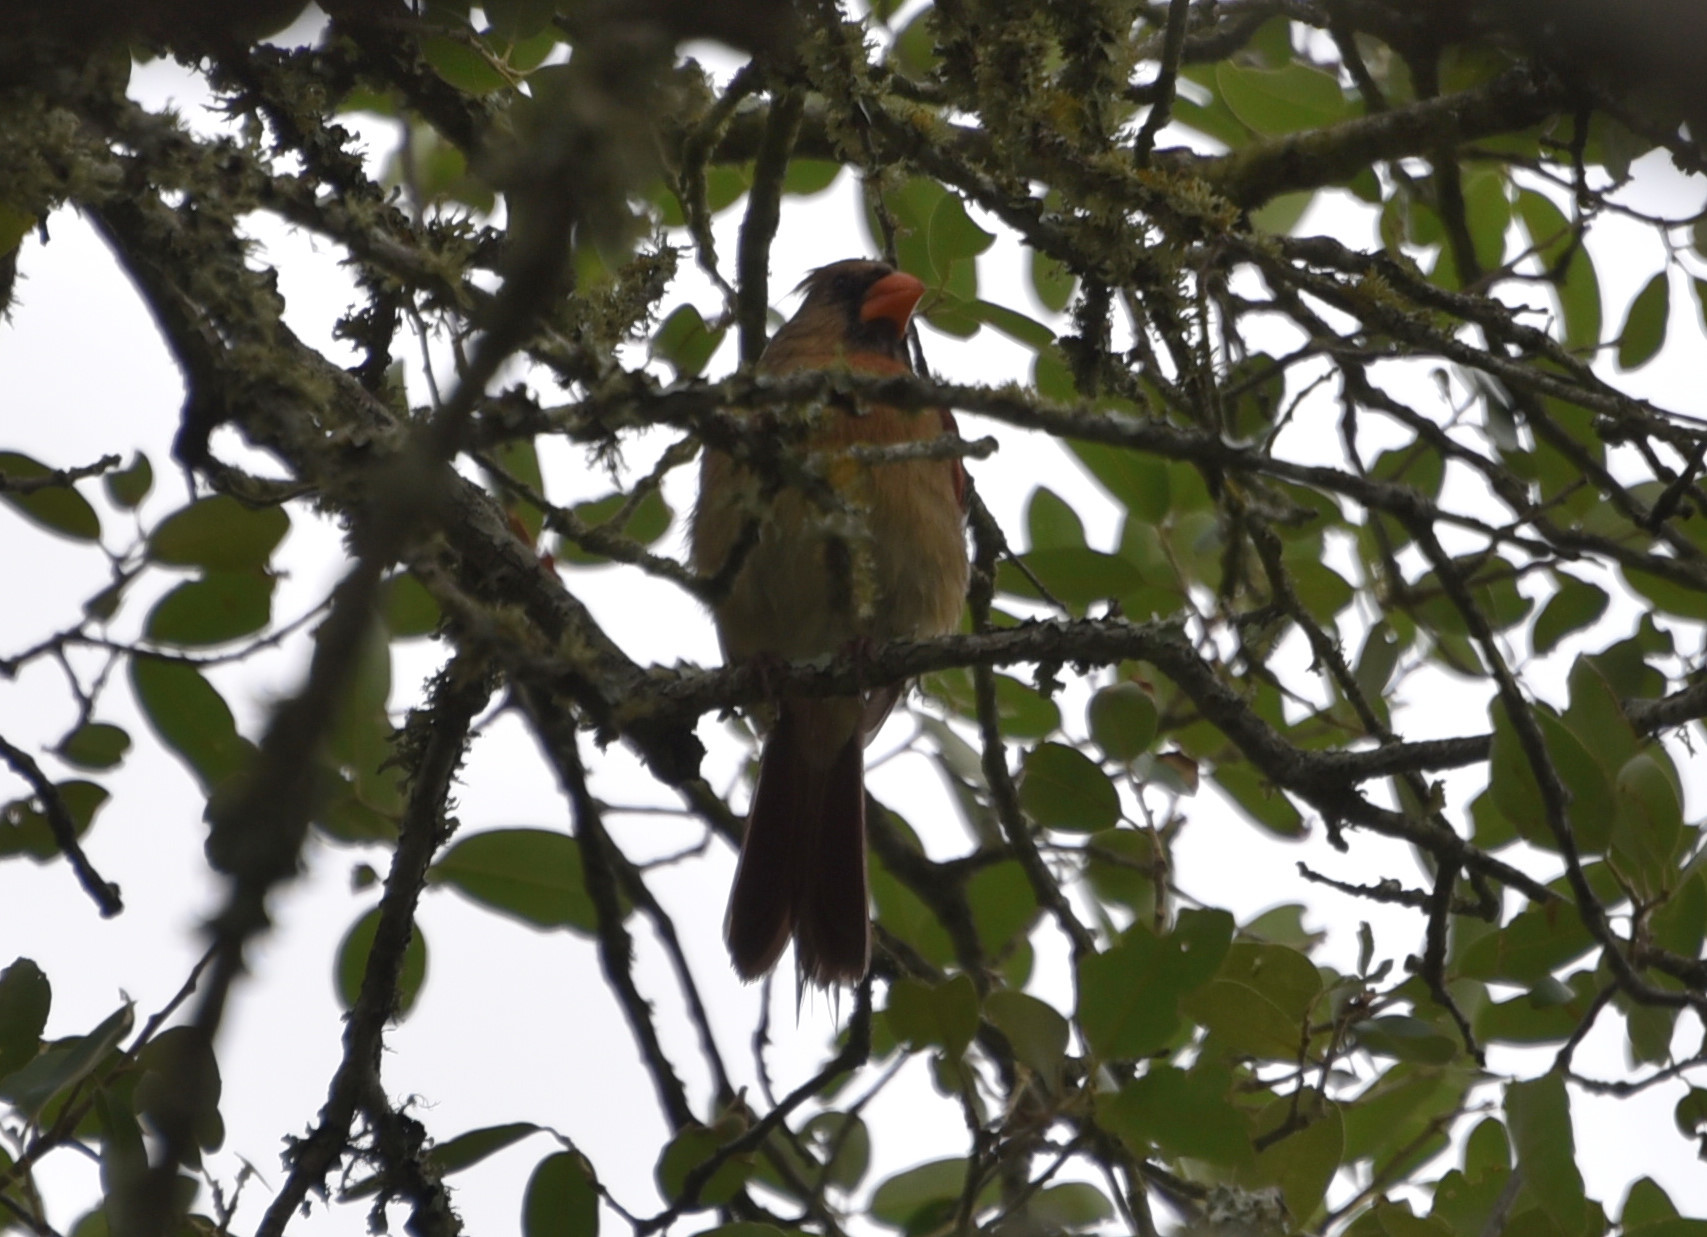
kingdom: Animalia
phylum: Chordata
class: Aves
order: Passeriformes
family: Cardinalidae
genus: Cardinalis
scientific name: Cardinalis cardinalis
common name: Northern cardinal
